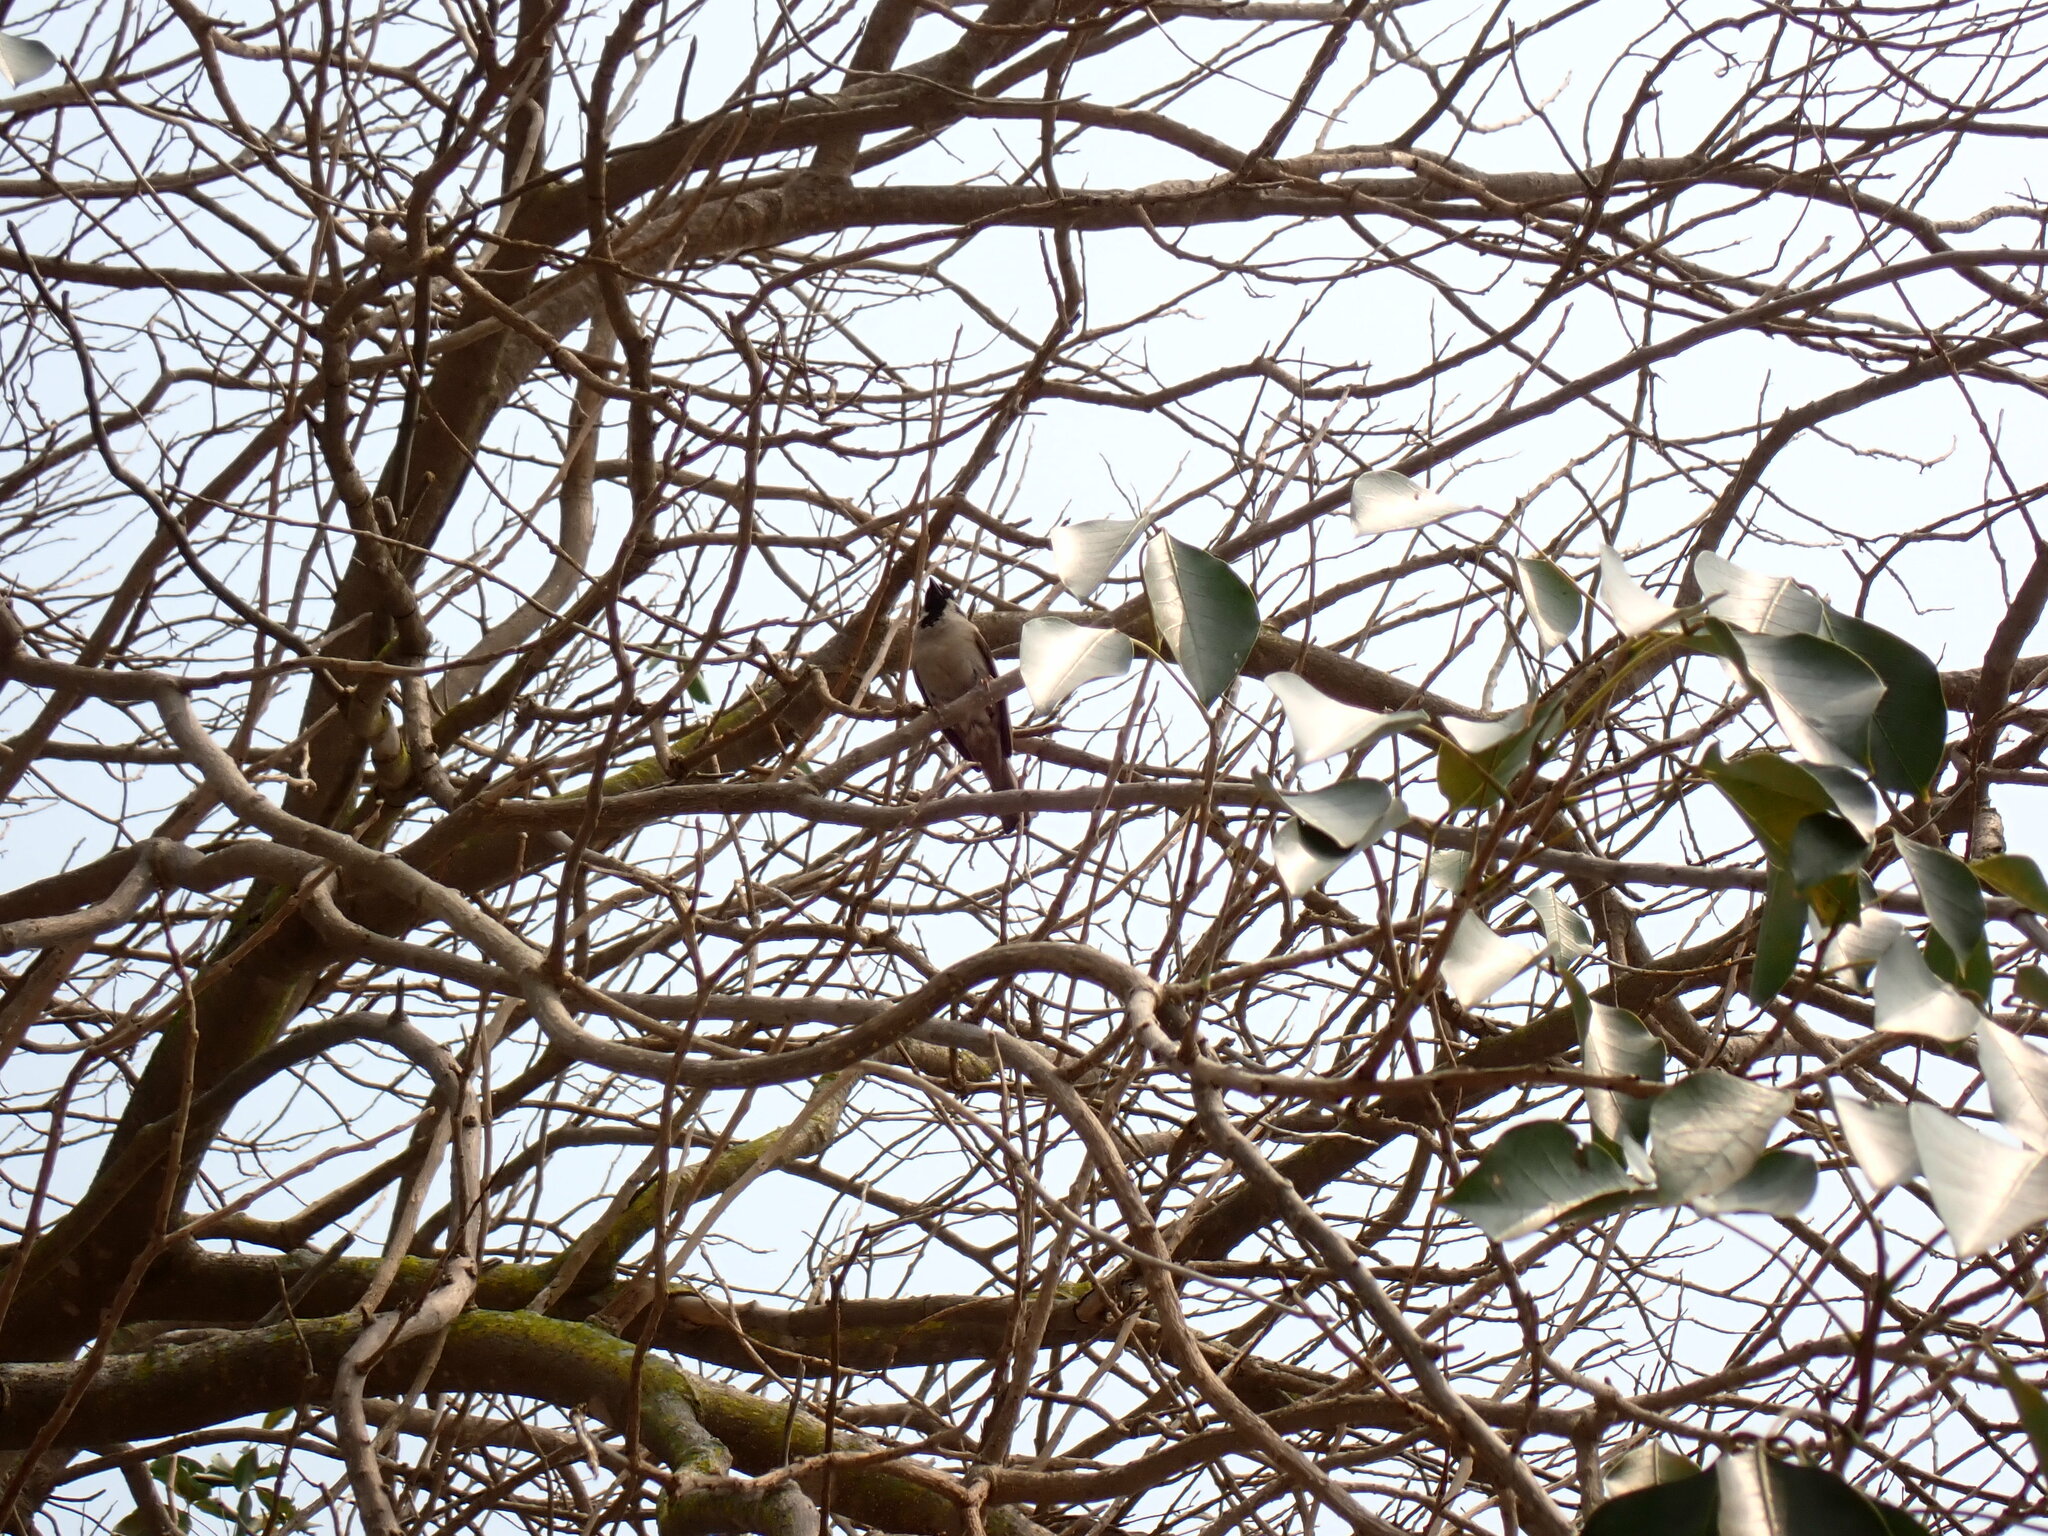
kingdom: Animalia
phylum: Chordata
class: Aves
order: Passeriformes
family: Passeridae
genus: Passer
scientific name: Passer montanus
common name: Eurasian tree sparrow
